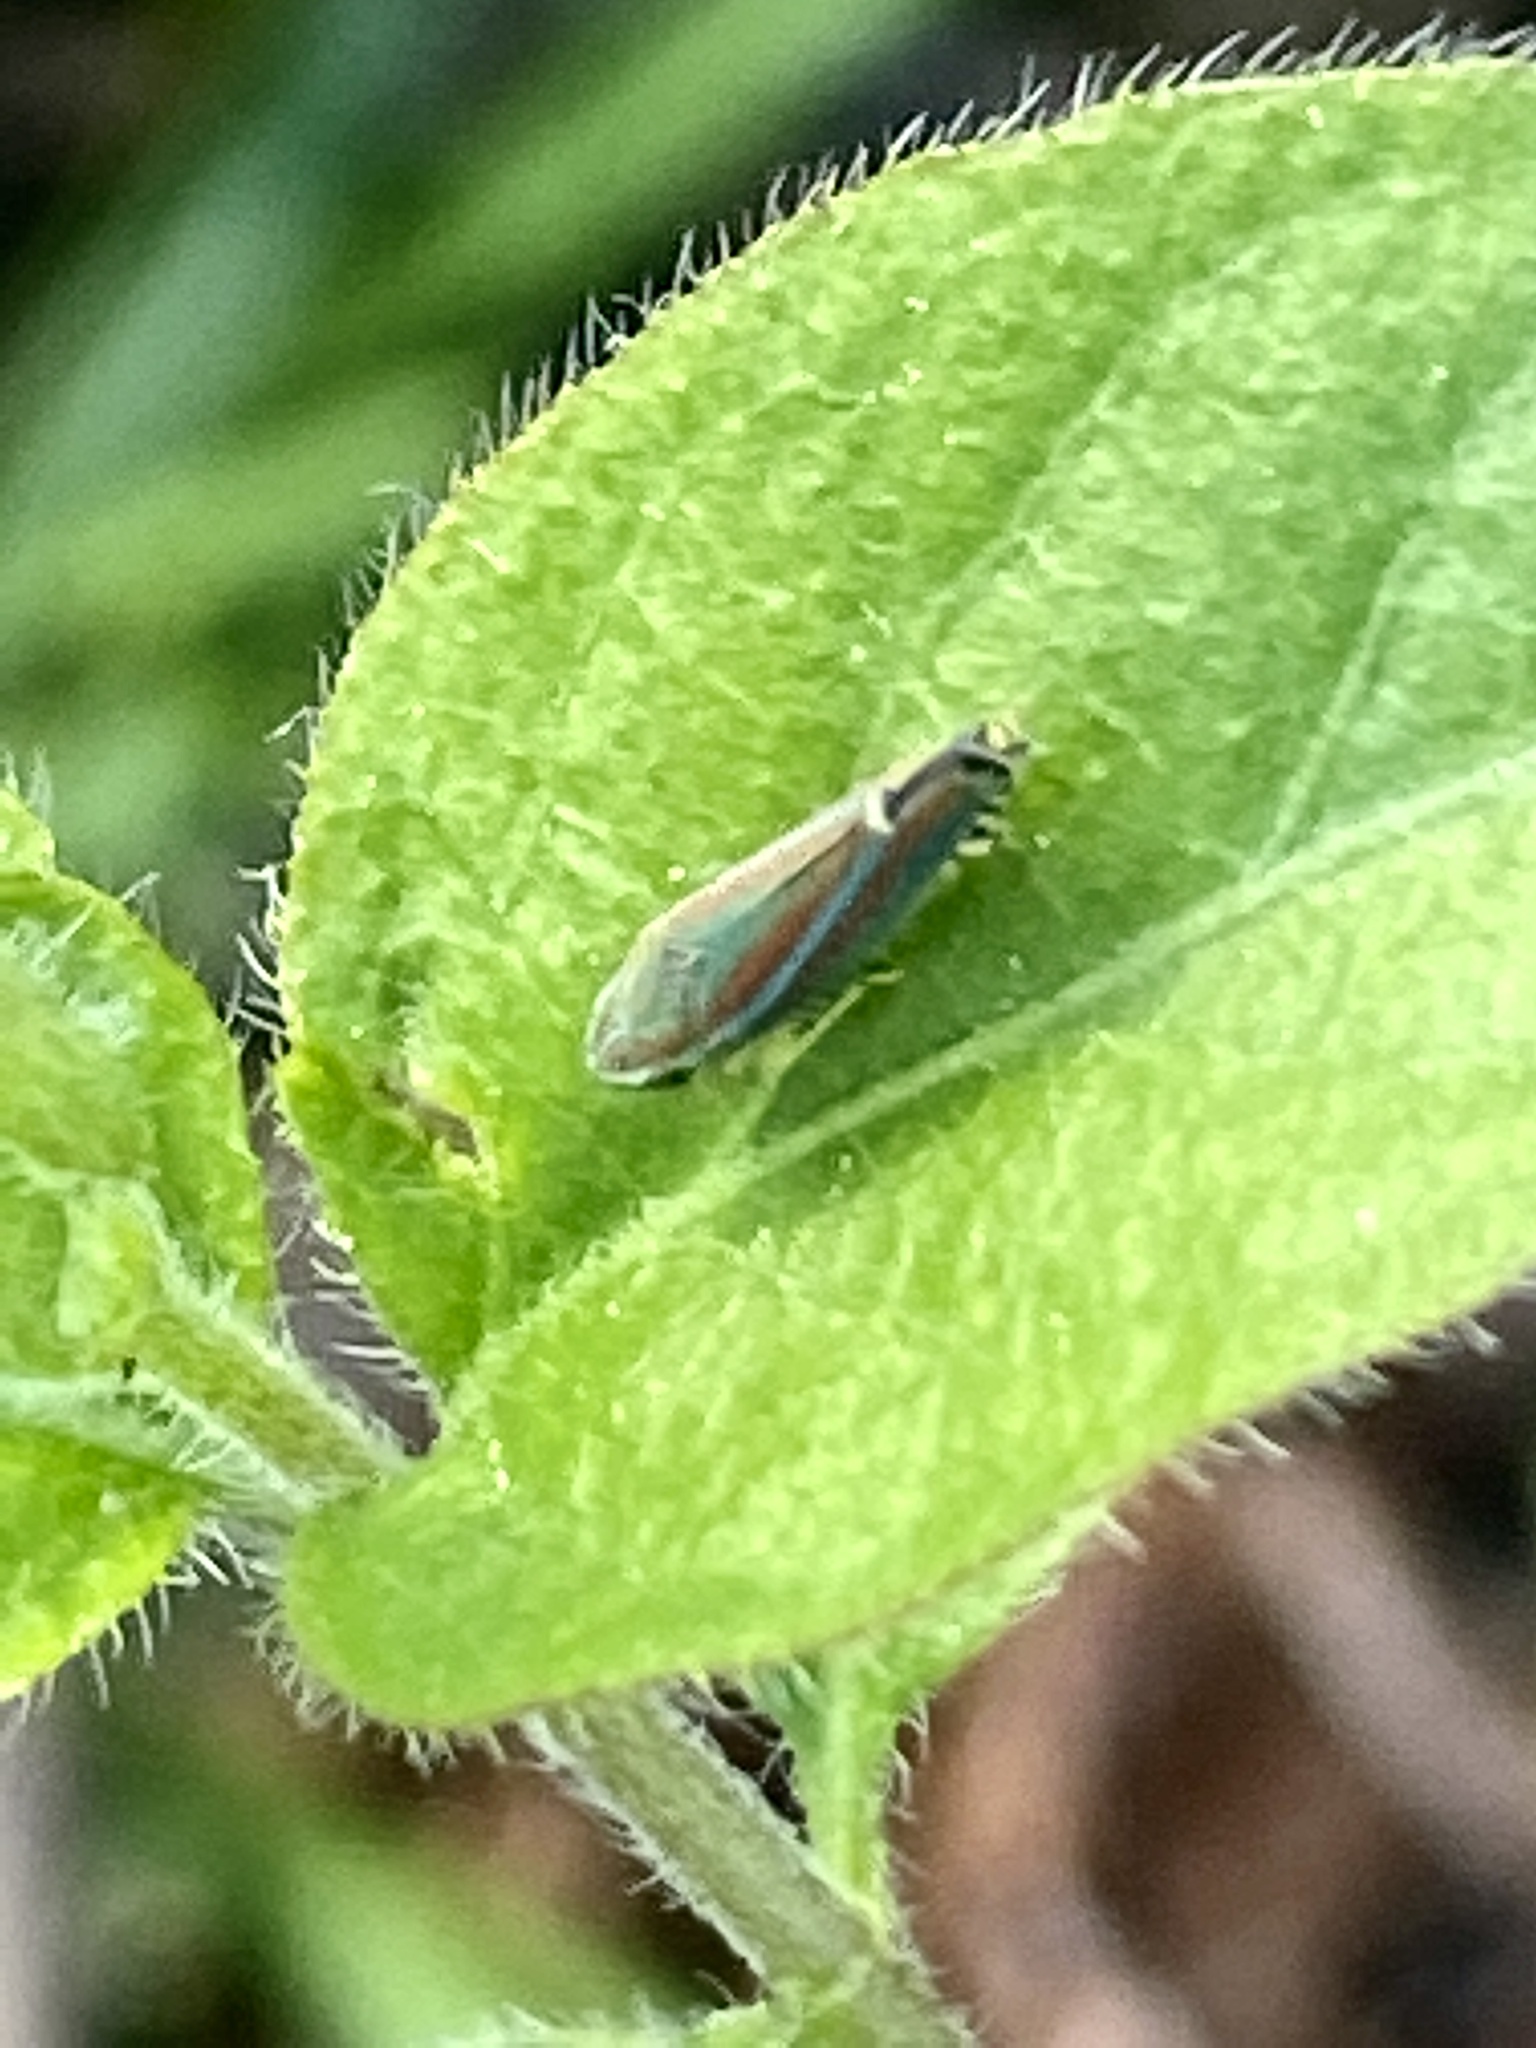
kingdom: Animalia
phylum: Arthropoda
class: Insecta
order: Hemiptera
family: Cicadellidae
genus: Graphocephala
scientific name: Graphocephala versuta
